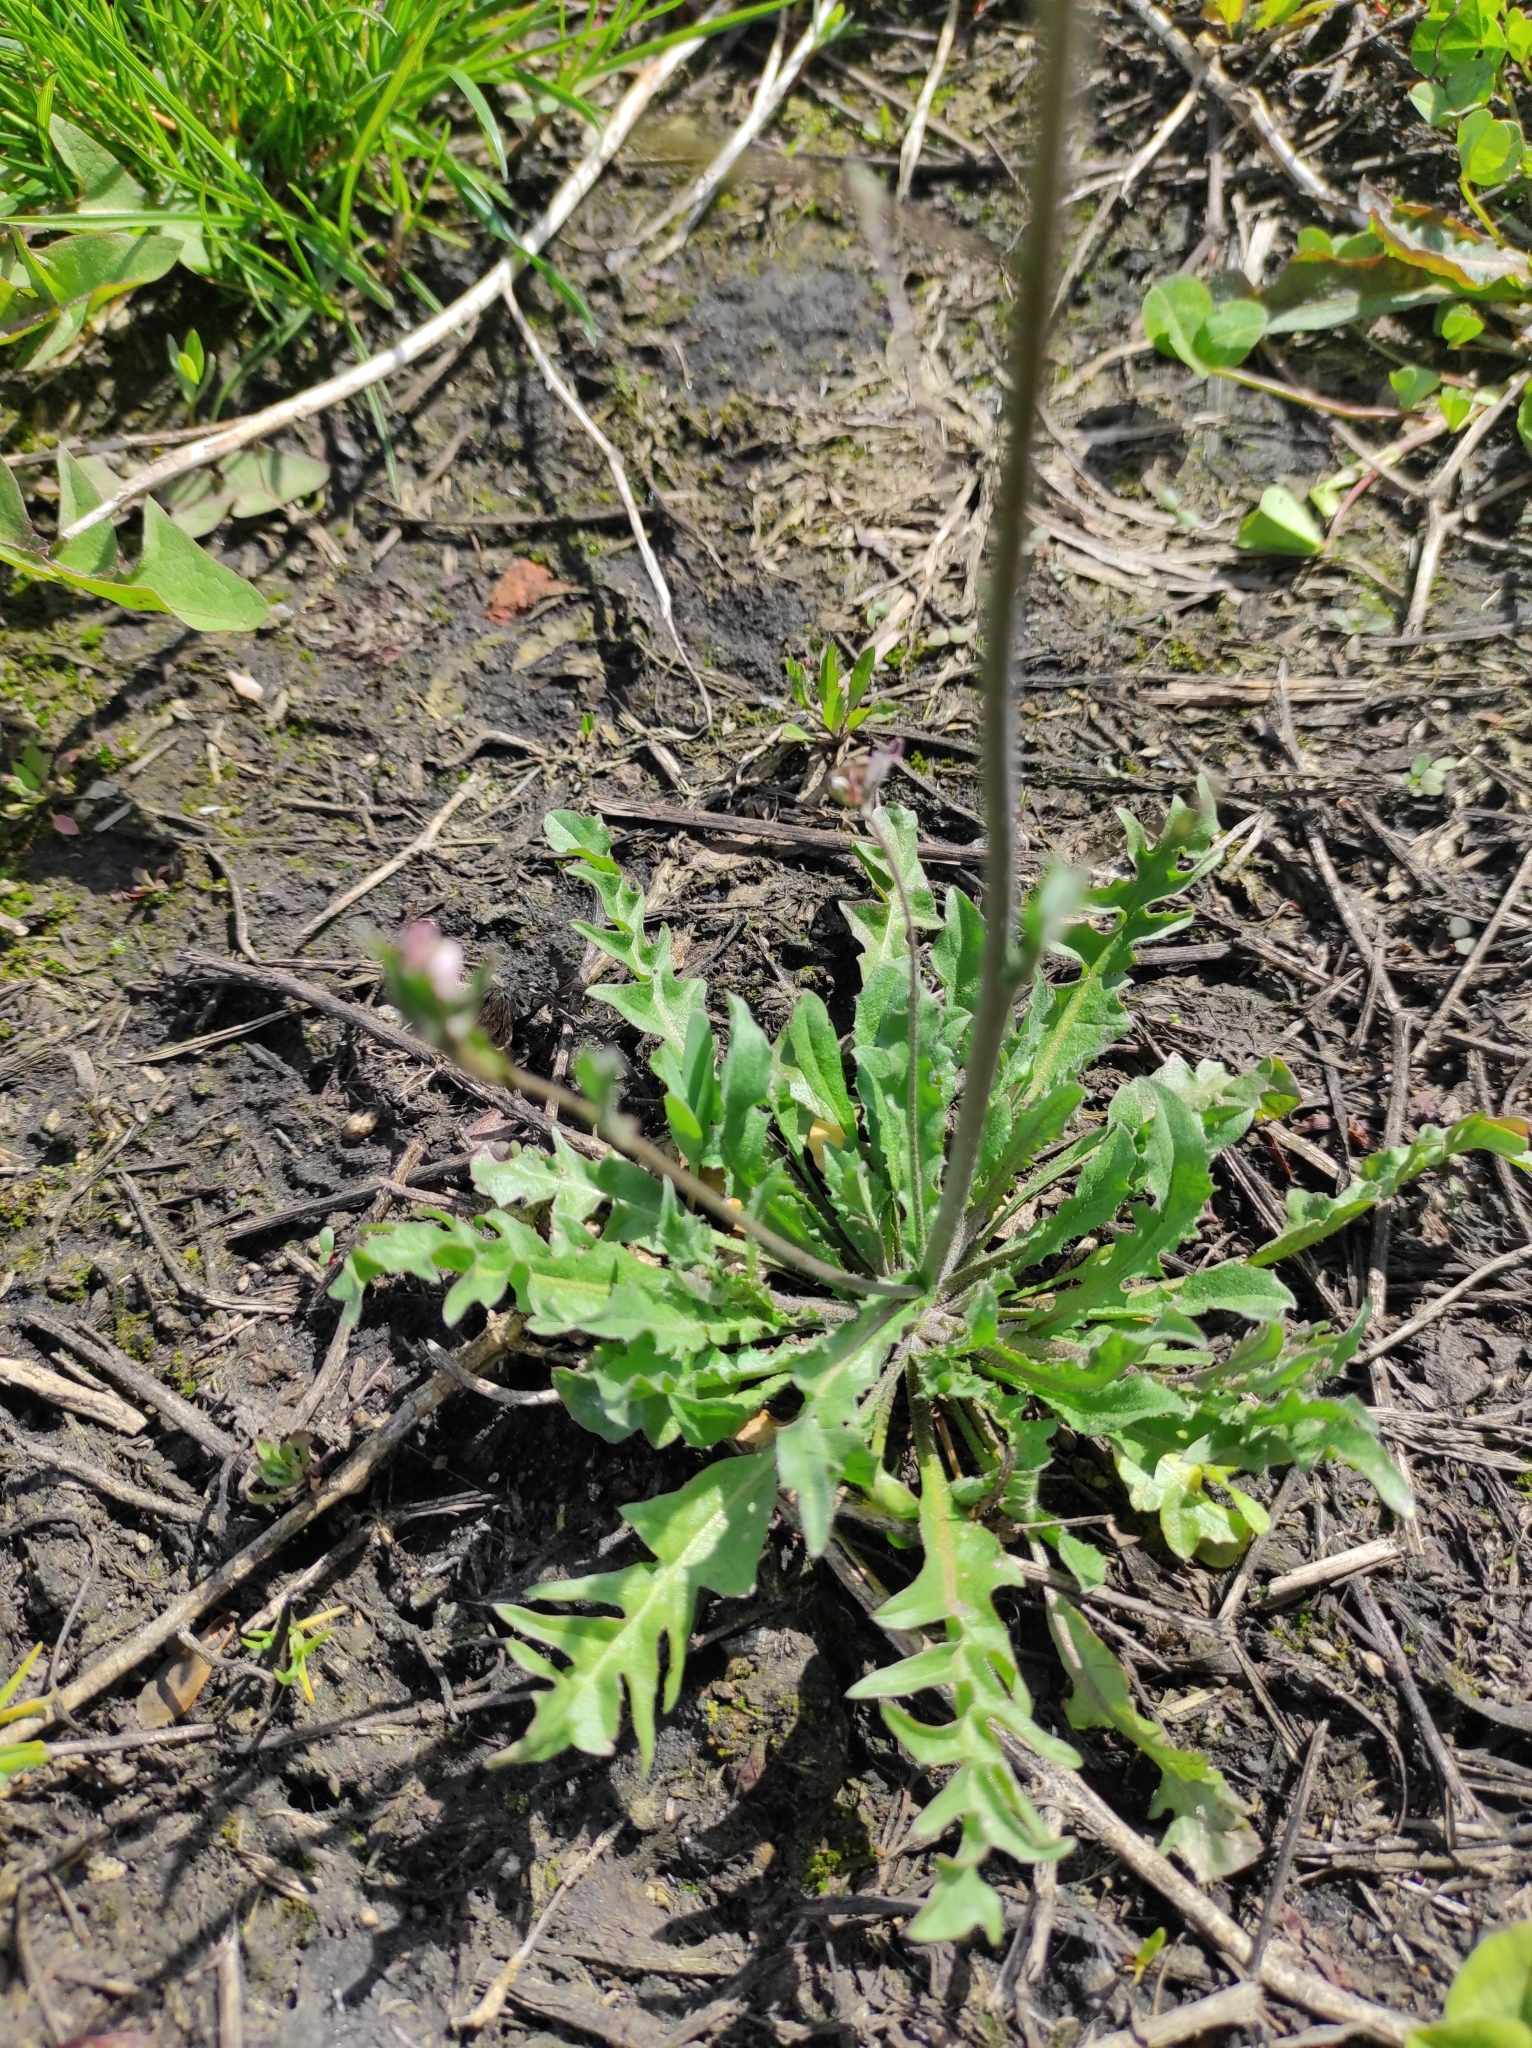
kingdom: Plantae
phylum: Tracheophyta
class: Magnoliopsida
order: Brassicales
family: Brassicaceae
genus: Capsella
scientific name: Capsella bursa-pastoris
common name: Shepherd's purse
